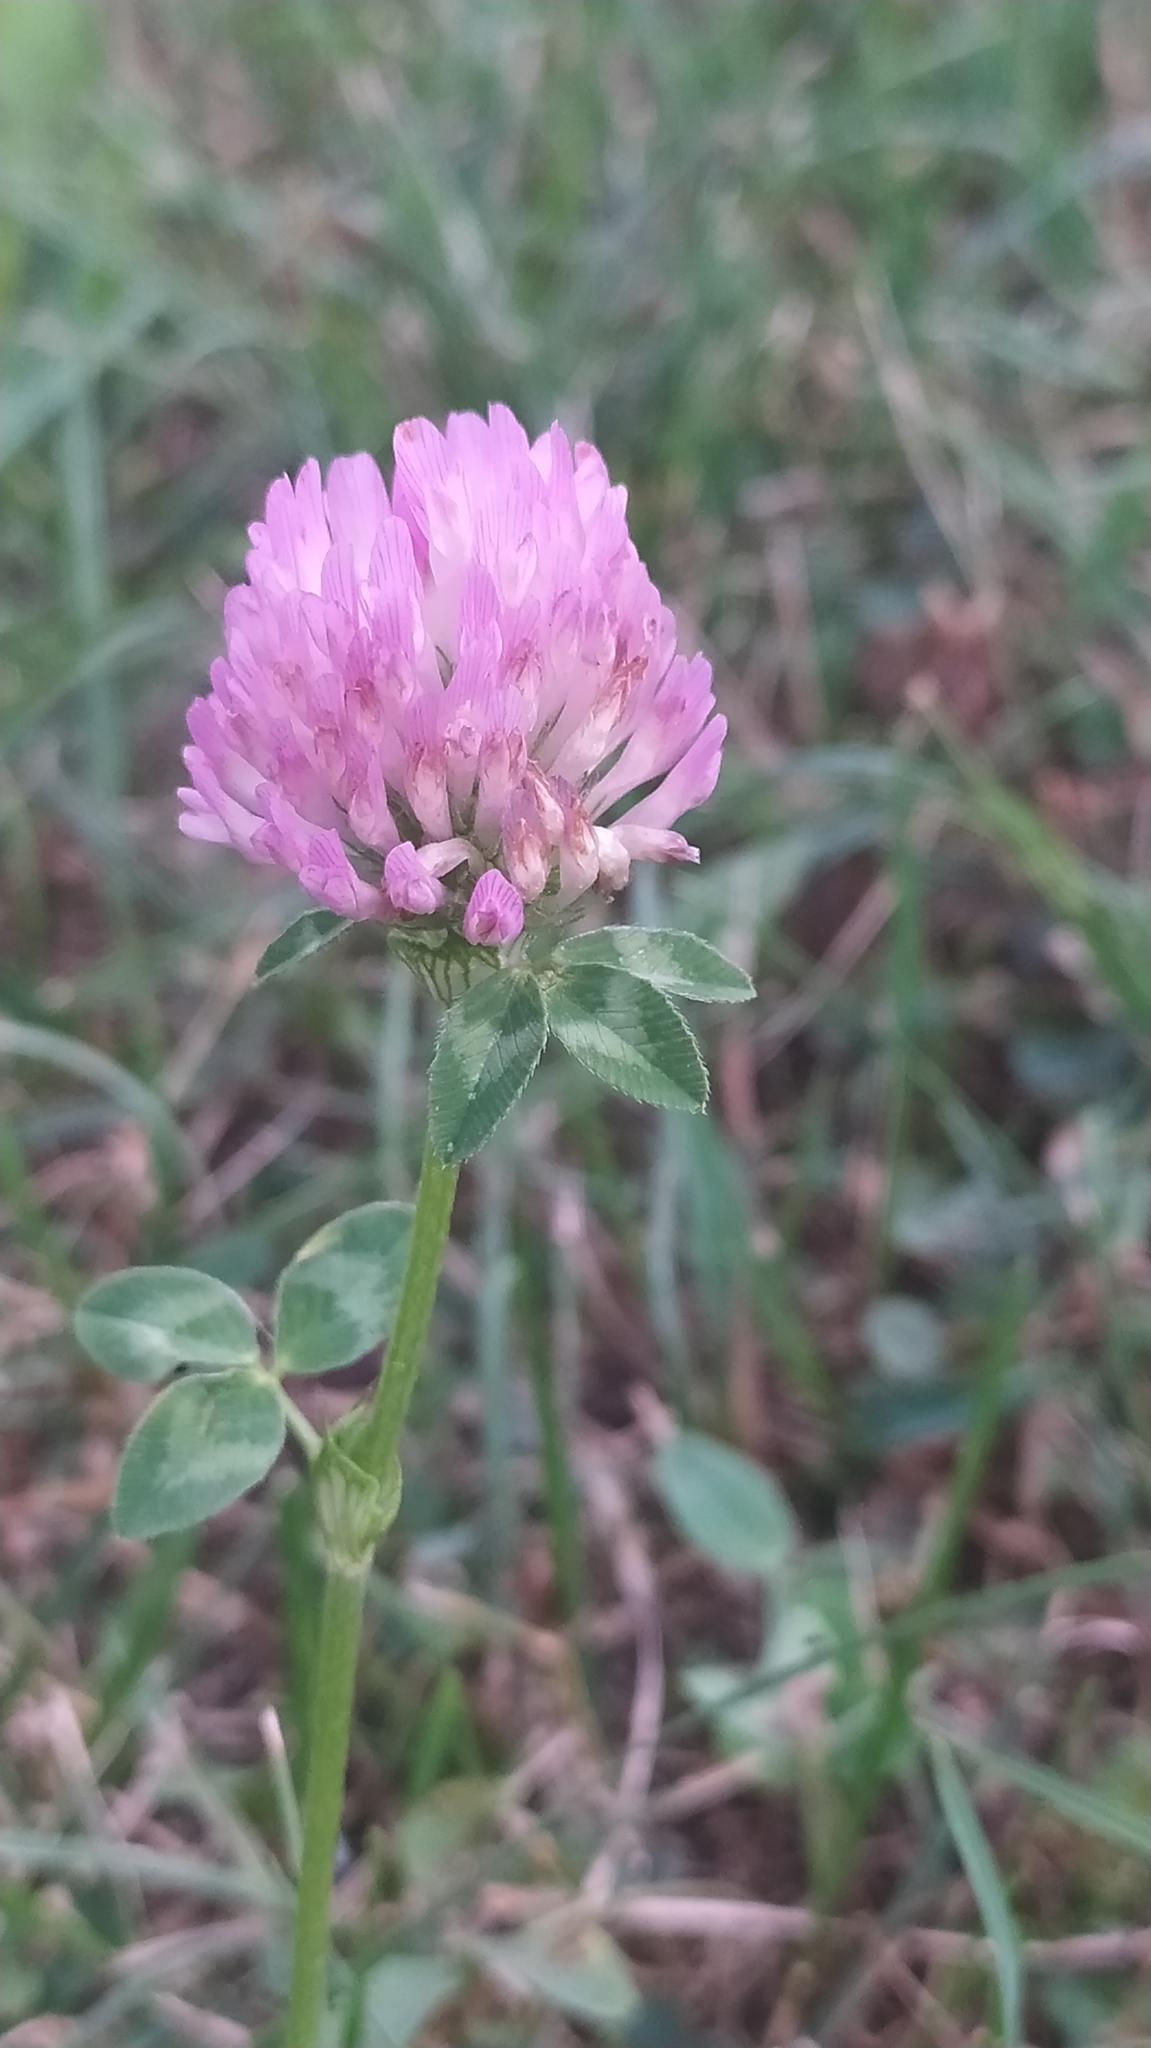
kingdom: Plantae
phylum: Tracheophyta
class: Magnoliopsida
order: Fabales
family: Fabaceae
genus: Trifolium
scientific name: Trifolium pratense
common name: Red clover
